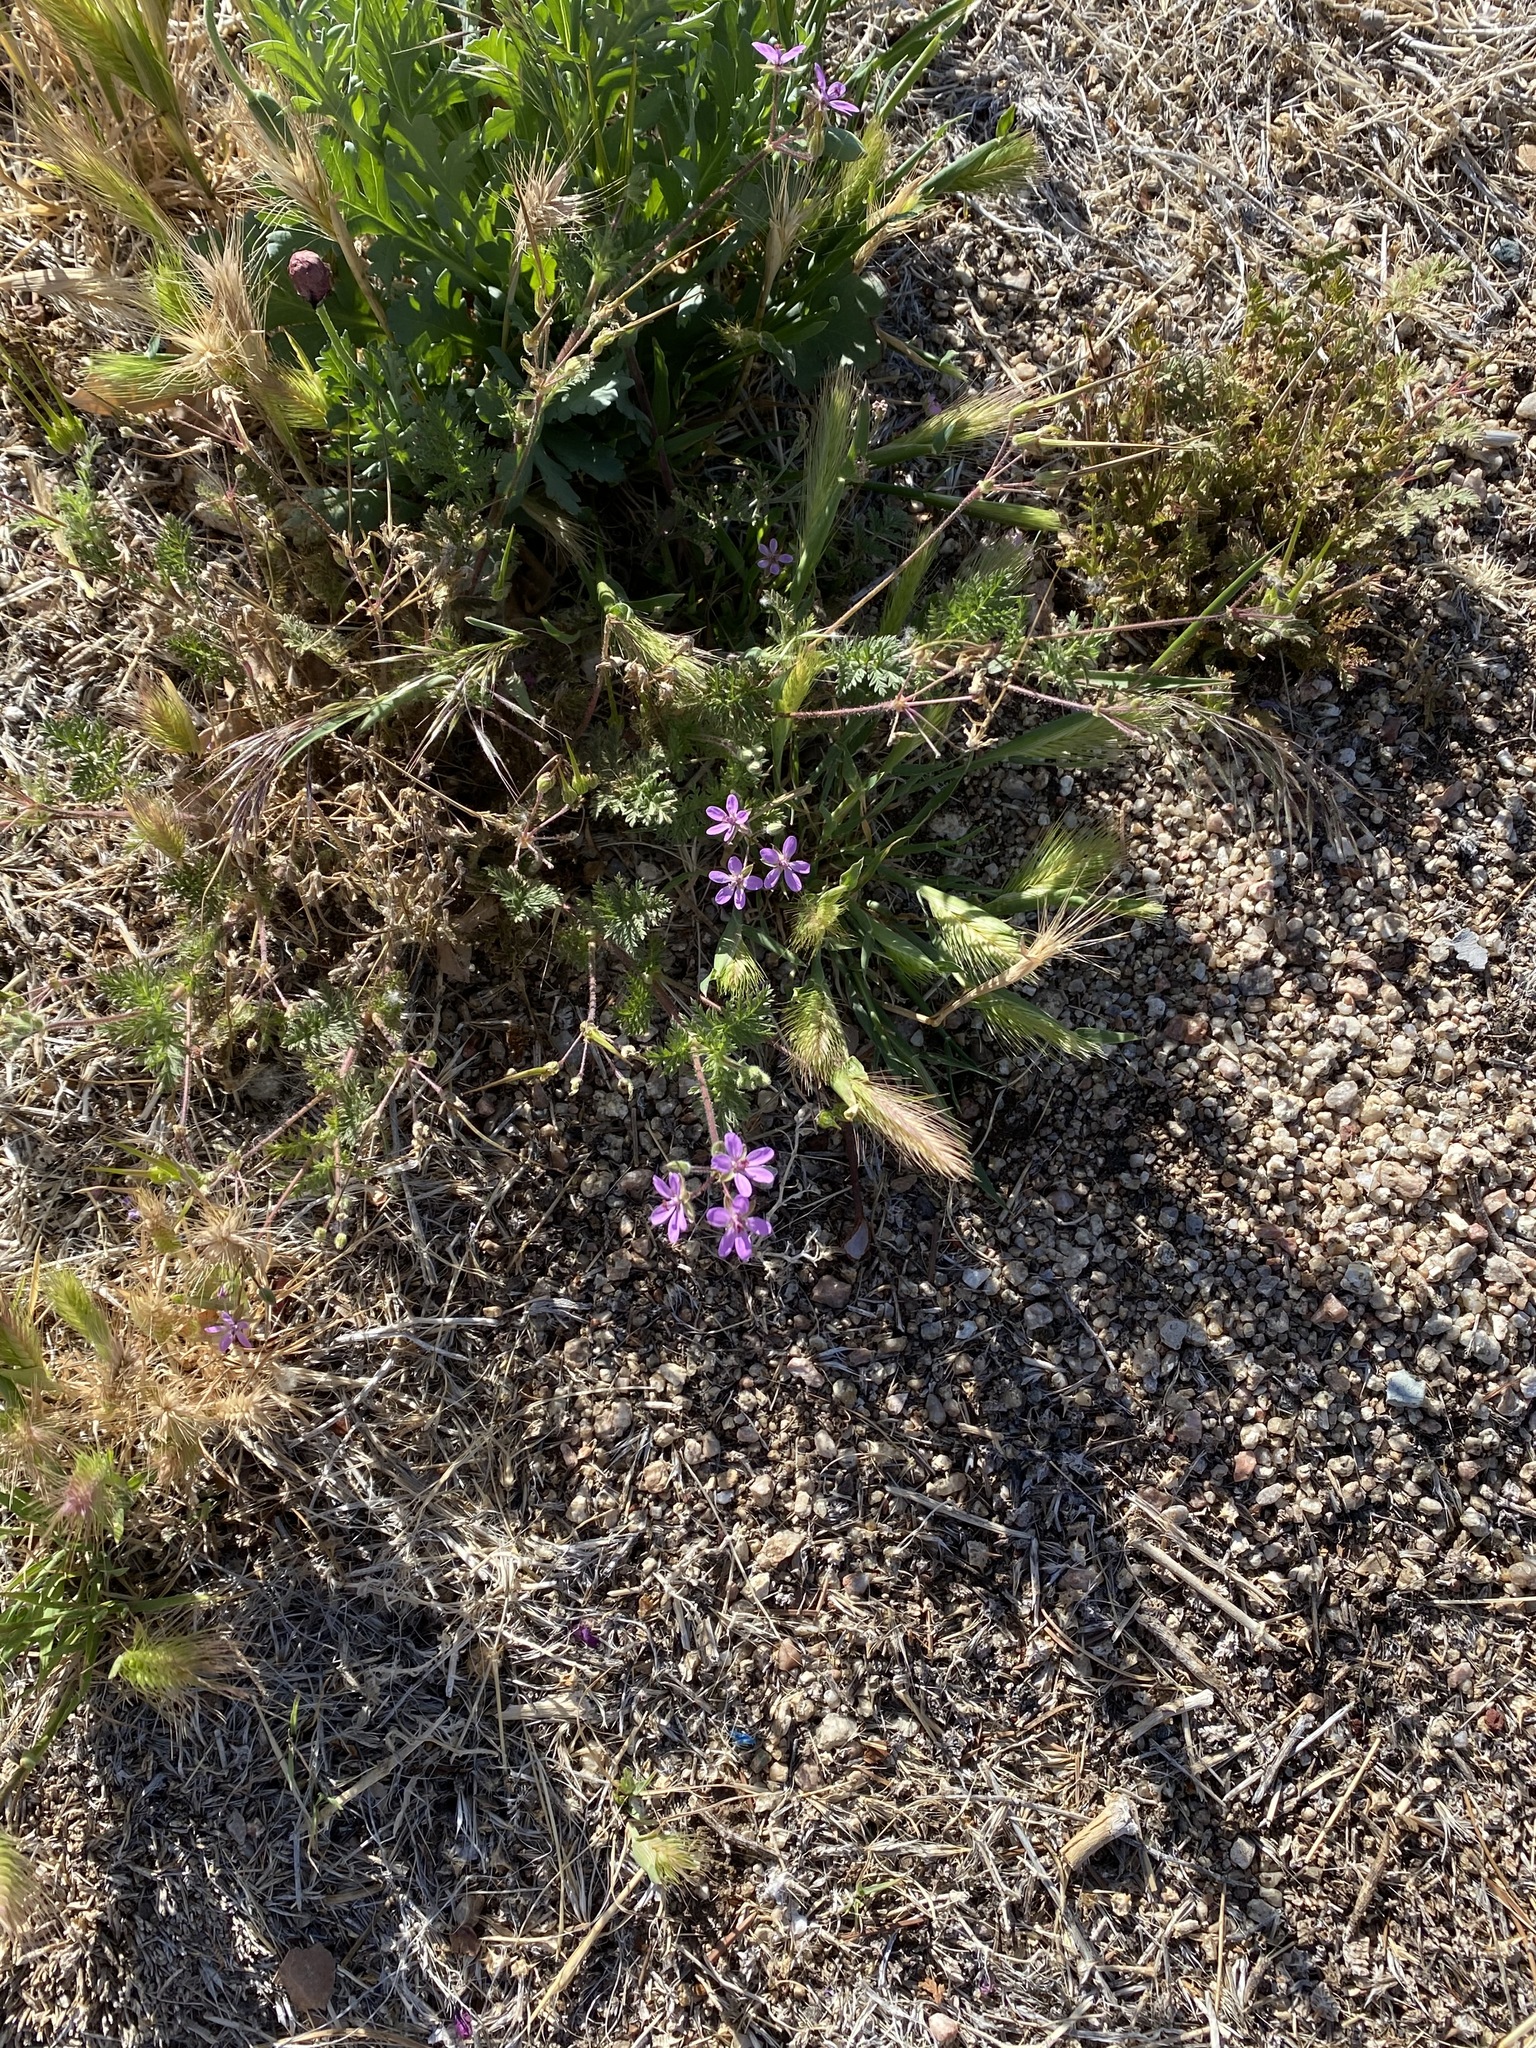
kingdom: Plantae
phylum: Tracheophyta
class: Magnoliopsida
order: Geraniales
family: Geraniaceae
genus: Erodium
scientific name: Erodium cicutarium
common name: Common stork's-bill
